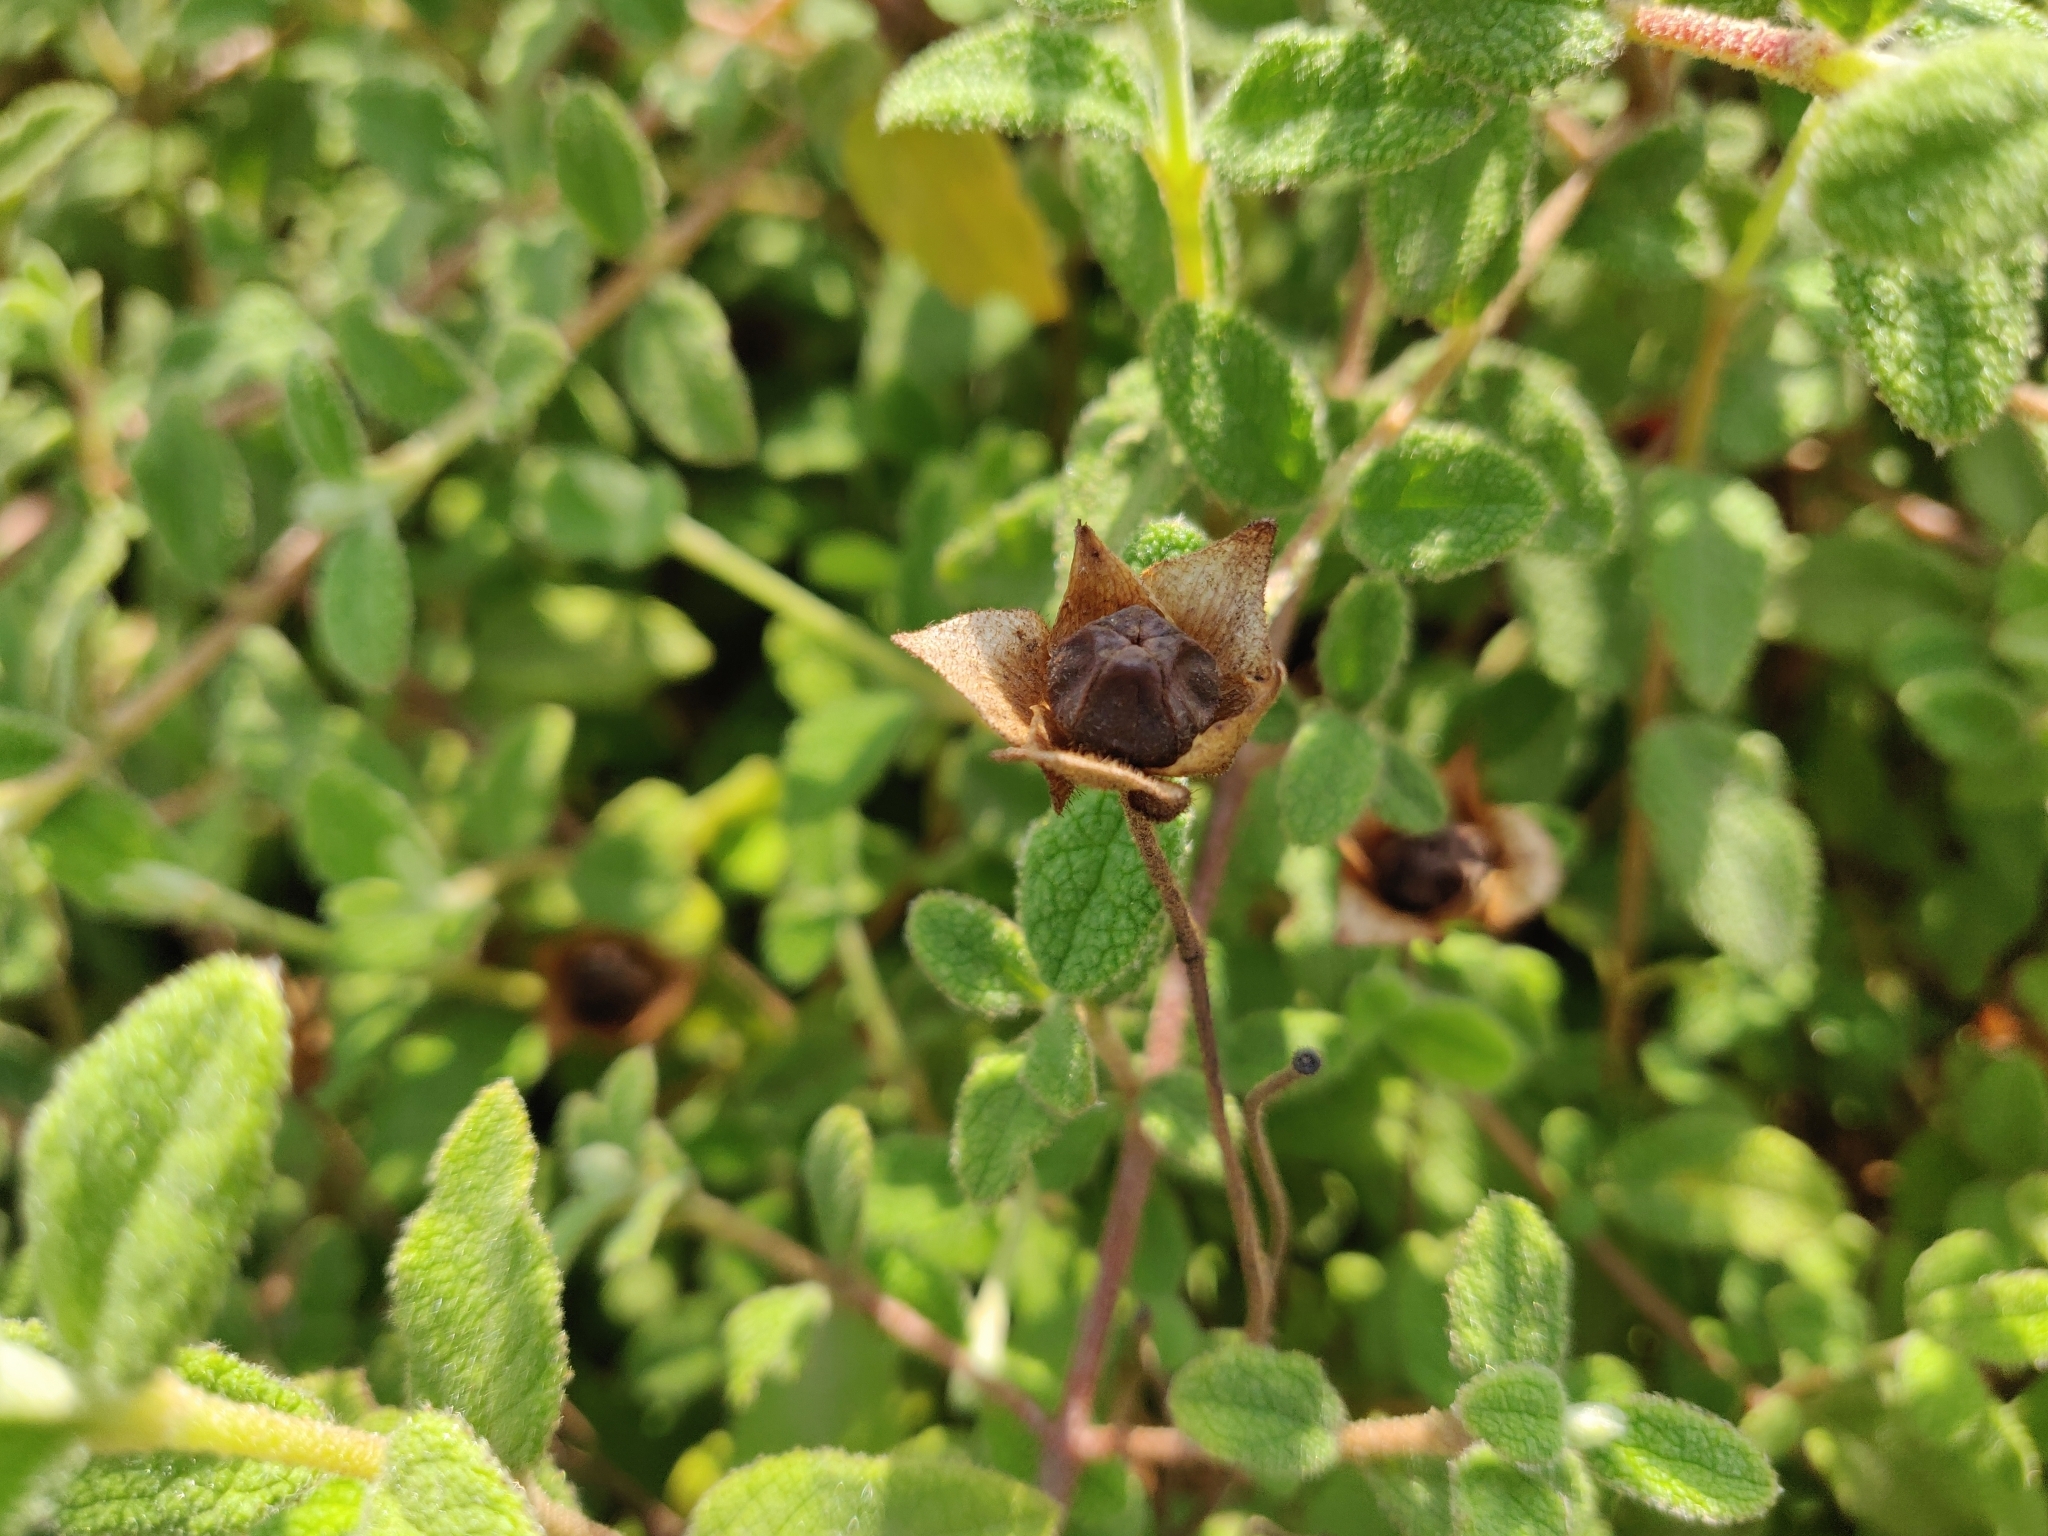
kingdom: Plantae
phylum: Tracheophyta
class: Magnoliopsida
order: Malvales
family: Cistaceae
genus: Cistus
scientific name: Cistus salviifolius
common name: Salvia cistus
